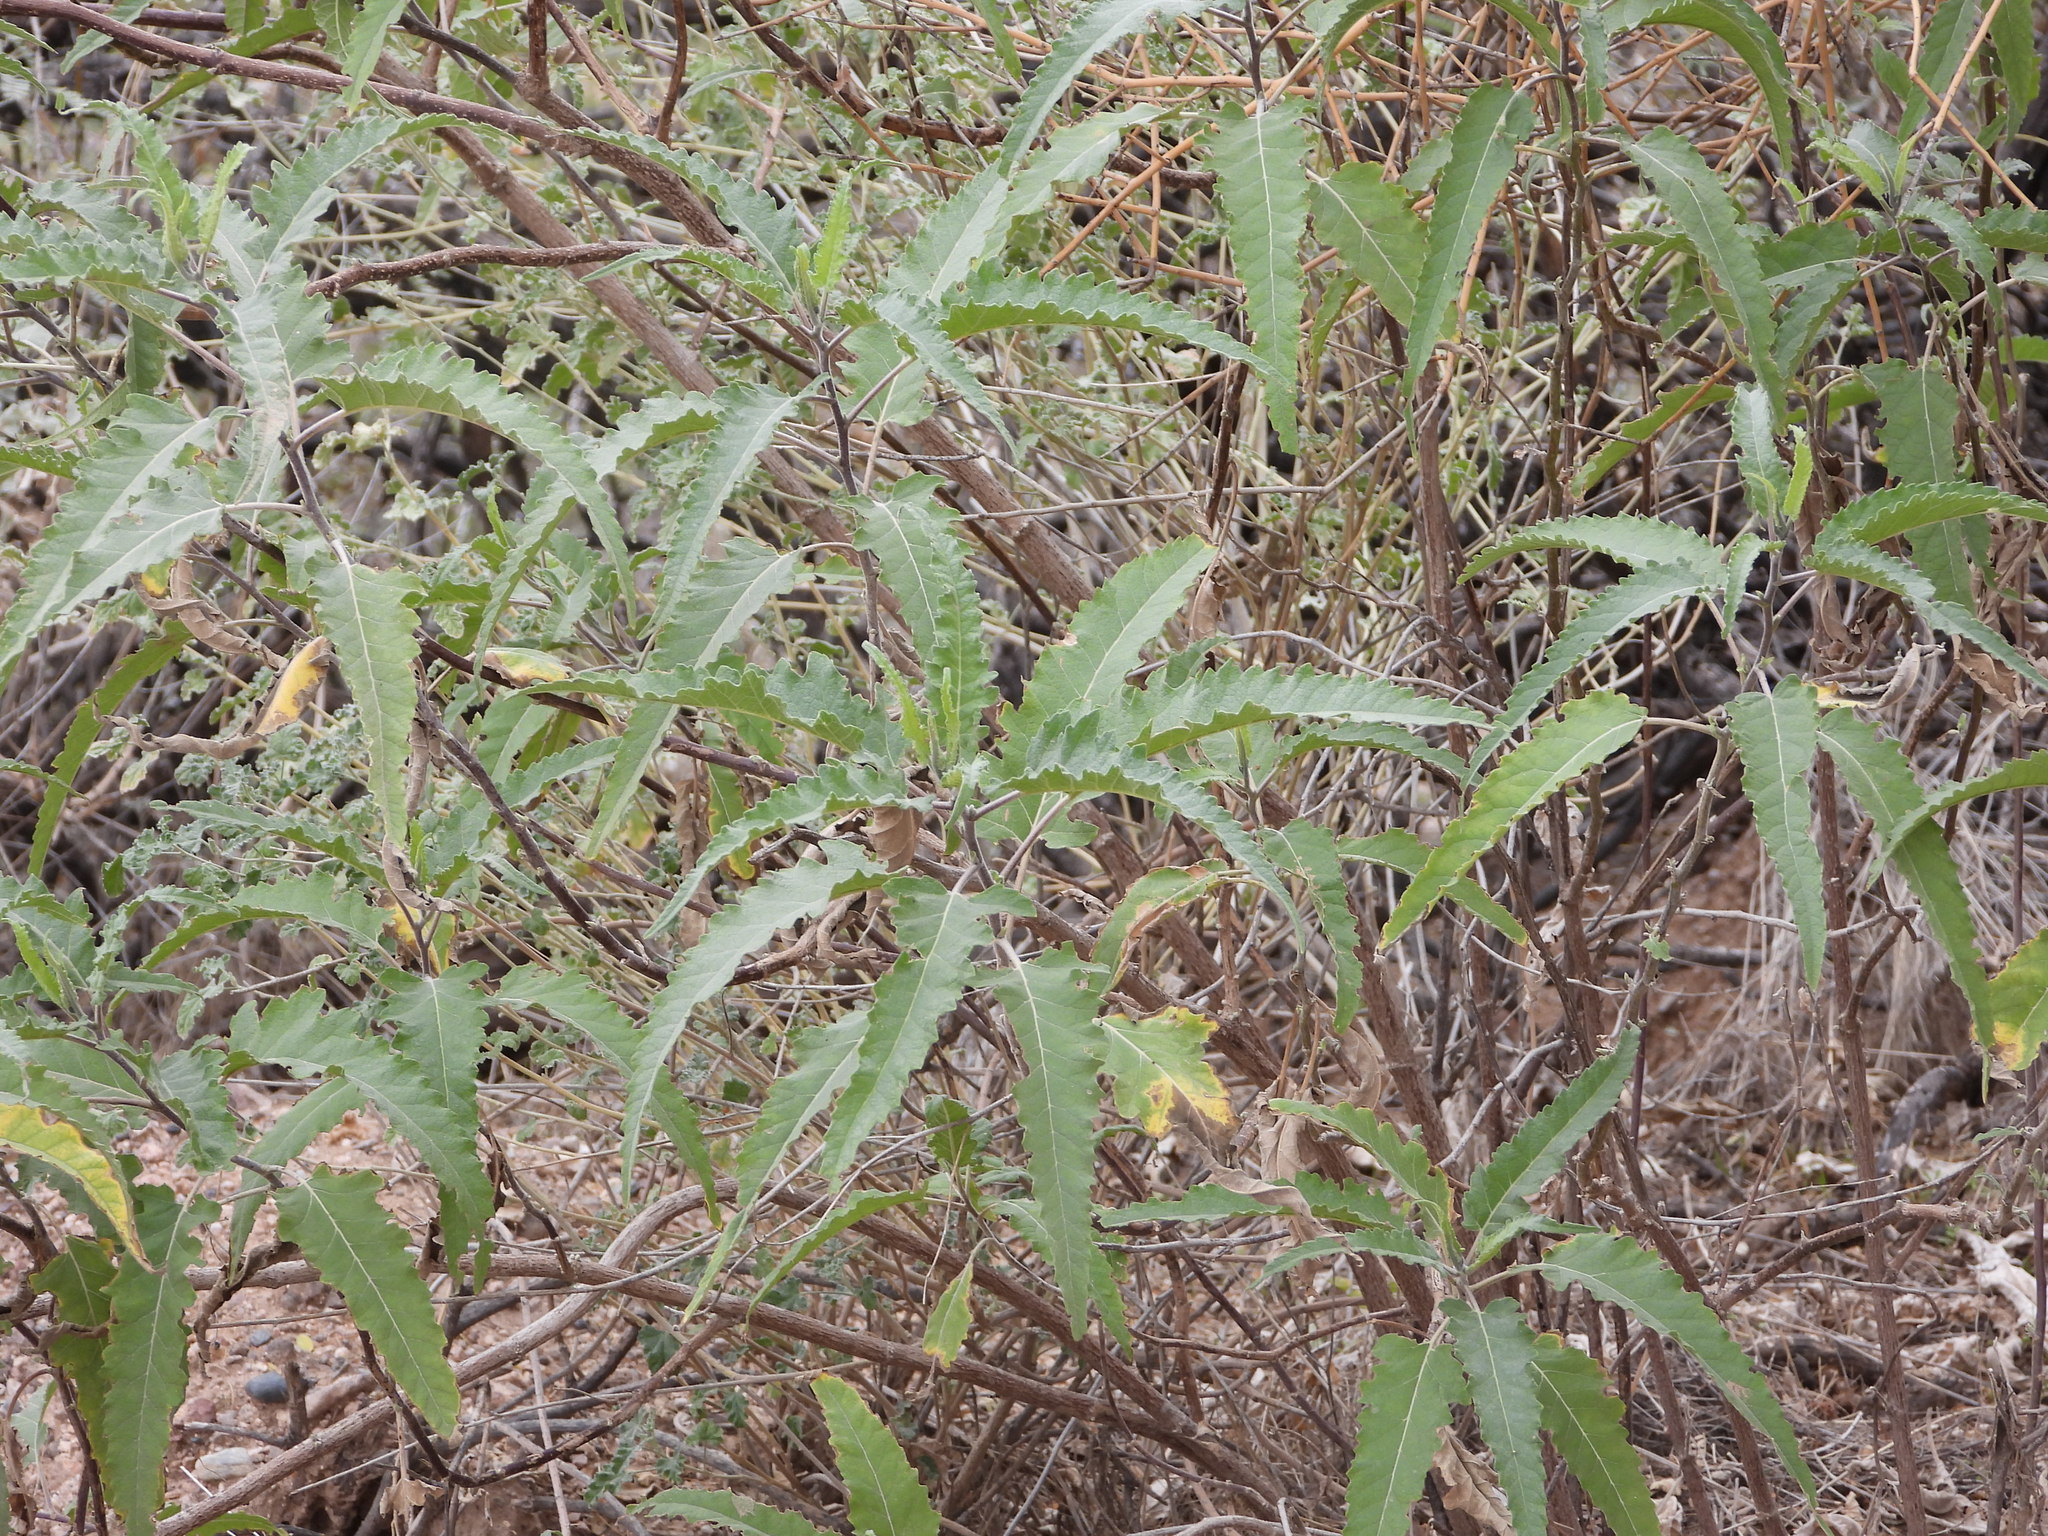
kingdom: Plantae
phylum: Tracheophyta
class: Magnoliopsida
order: Asterales
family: Asteraceae
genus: Ambrosia
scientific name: Ambrosia ambrosioides
